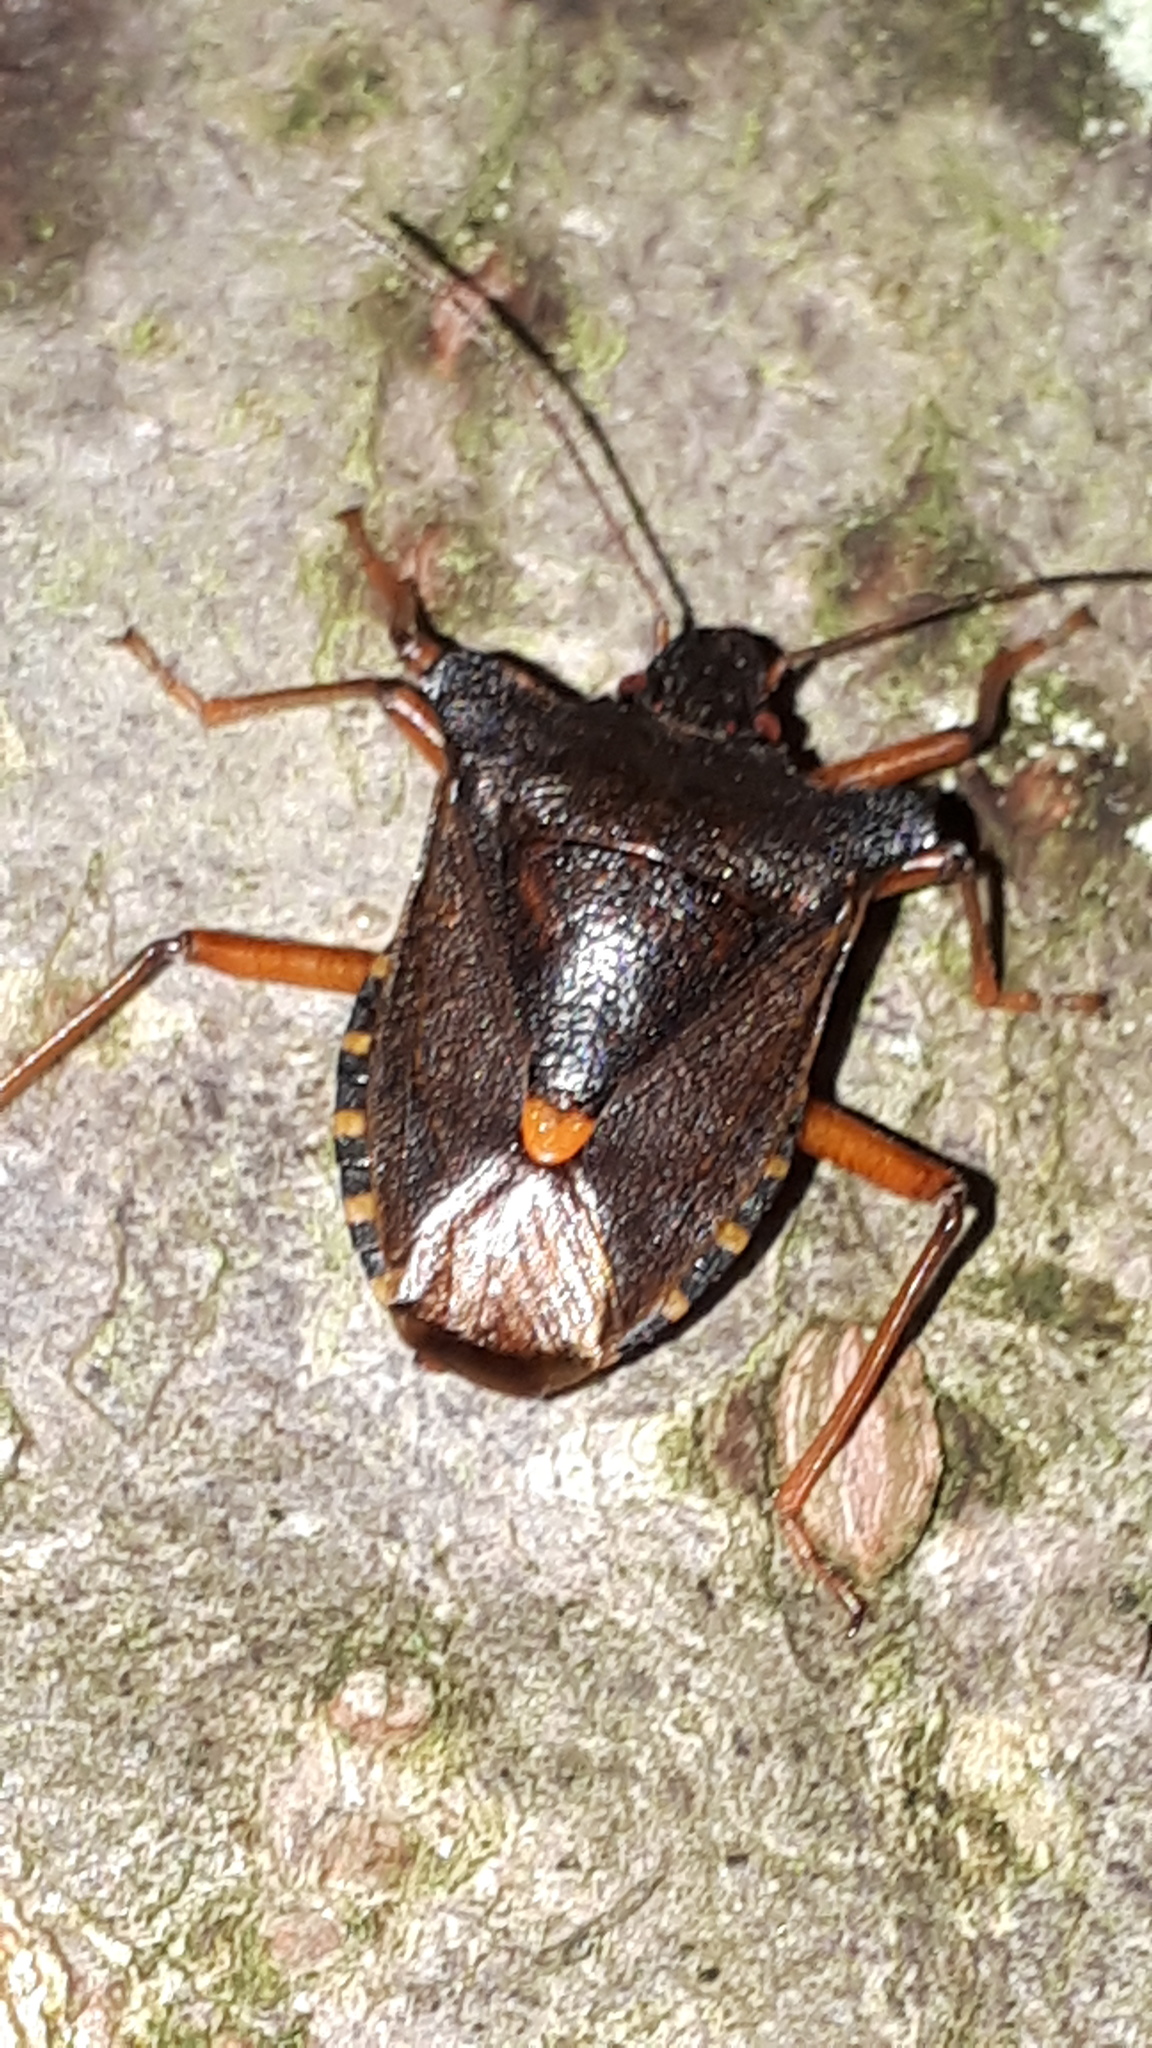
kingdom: Animalia
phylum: Arthropoda
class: Insecta
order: Hemiptera
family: Pentatomidae
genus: Pentatoma
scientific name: Pentatoma rufipes
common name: Forest bug
